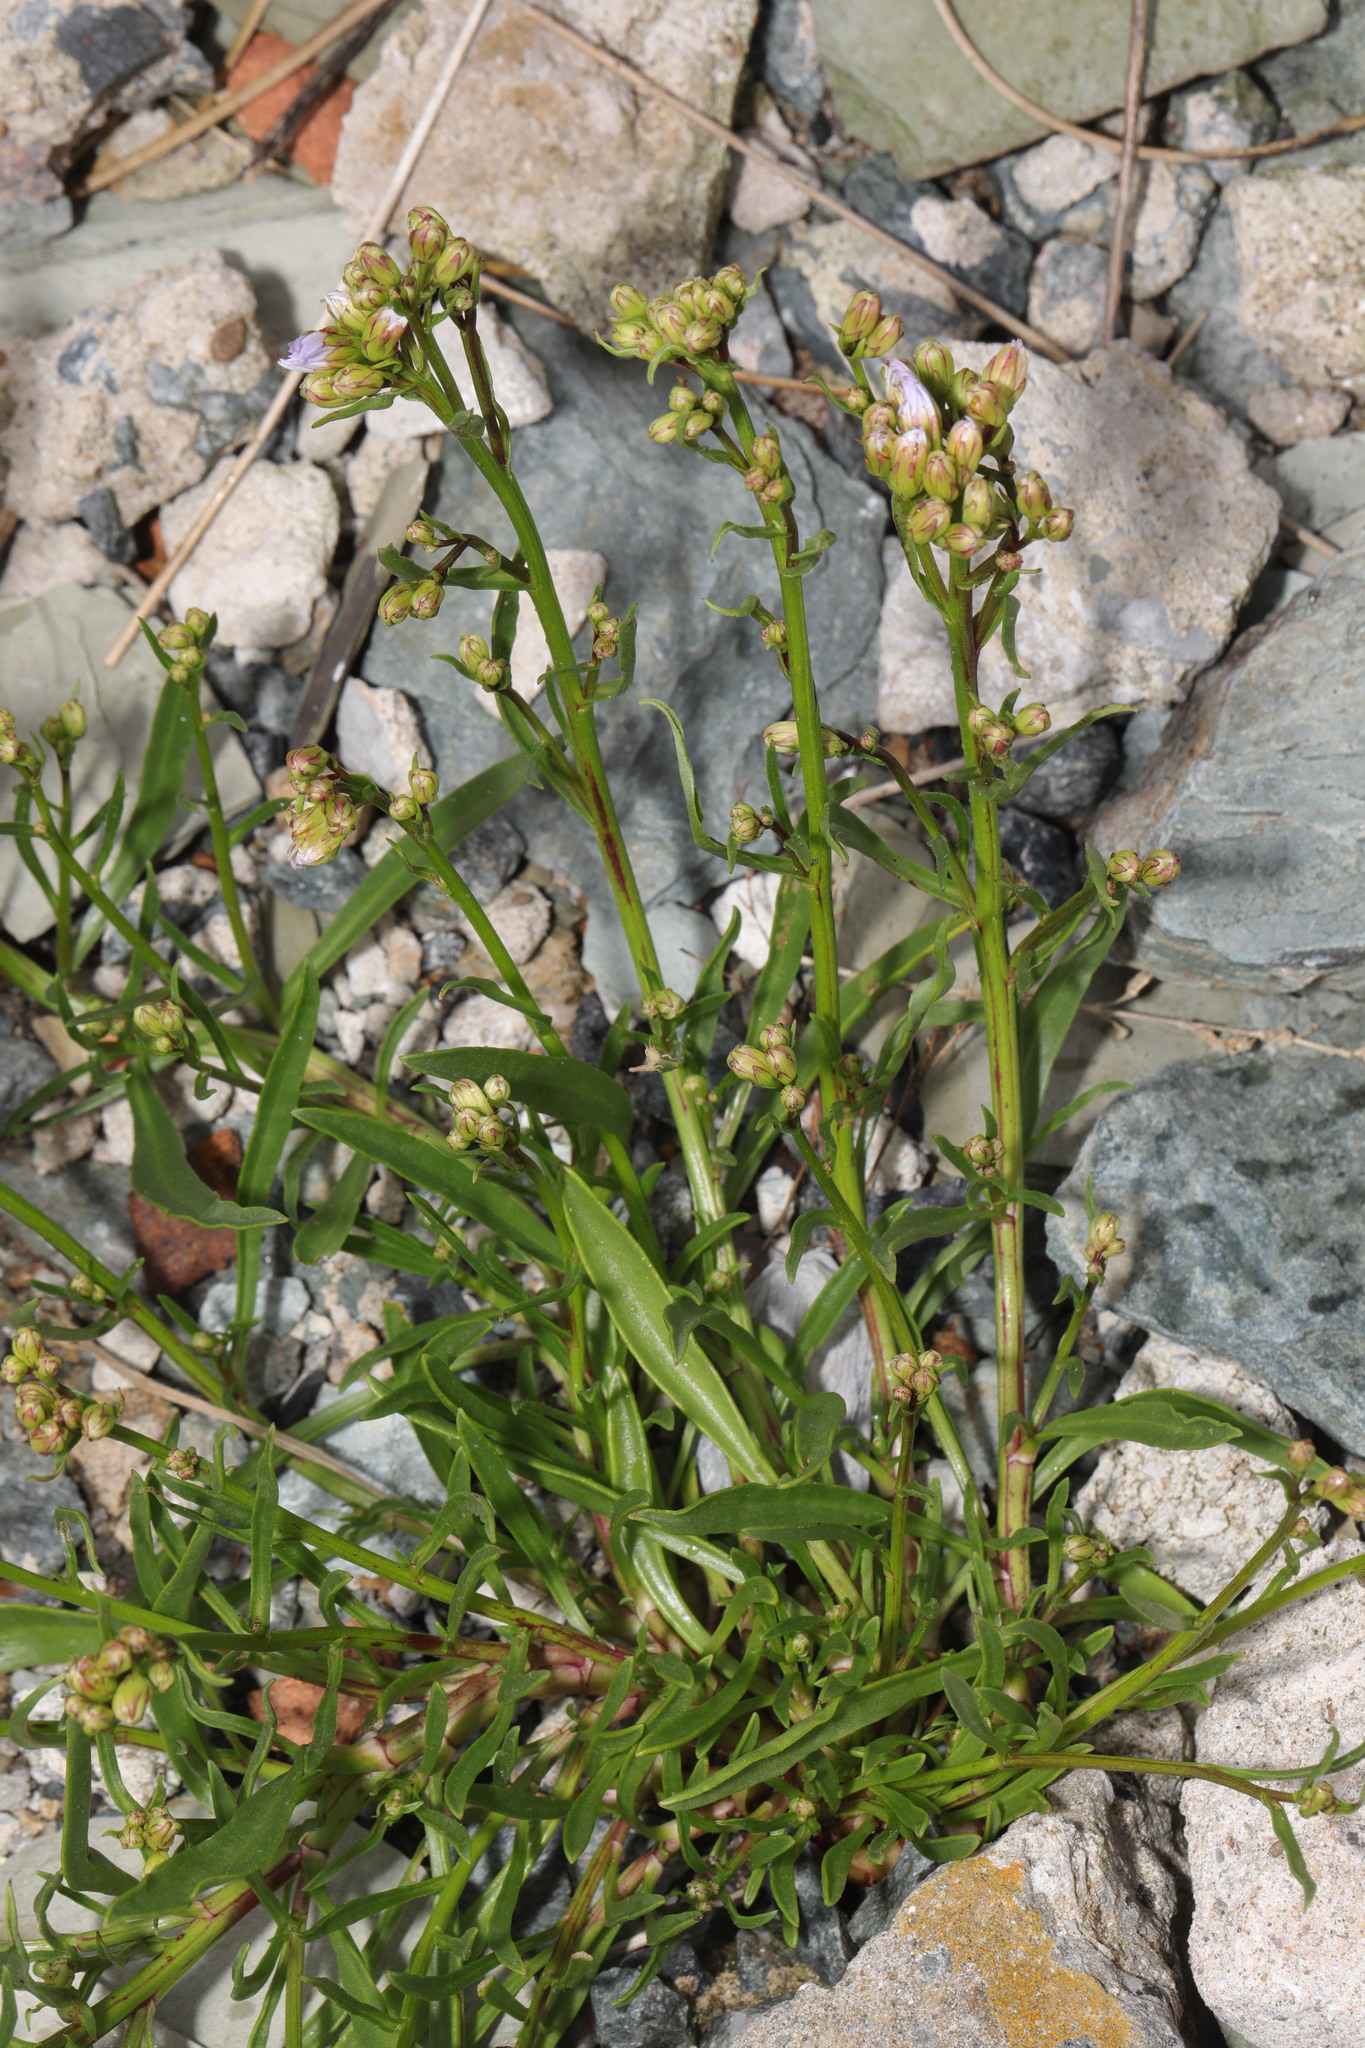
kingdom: Plantae
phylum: Tracheophyta
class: Magnoliopsida
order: Asterales
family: Asteraceae
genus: Tripolium
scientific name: Tripolium pannonicum
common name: Sea aster
